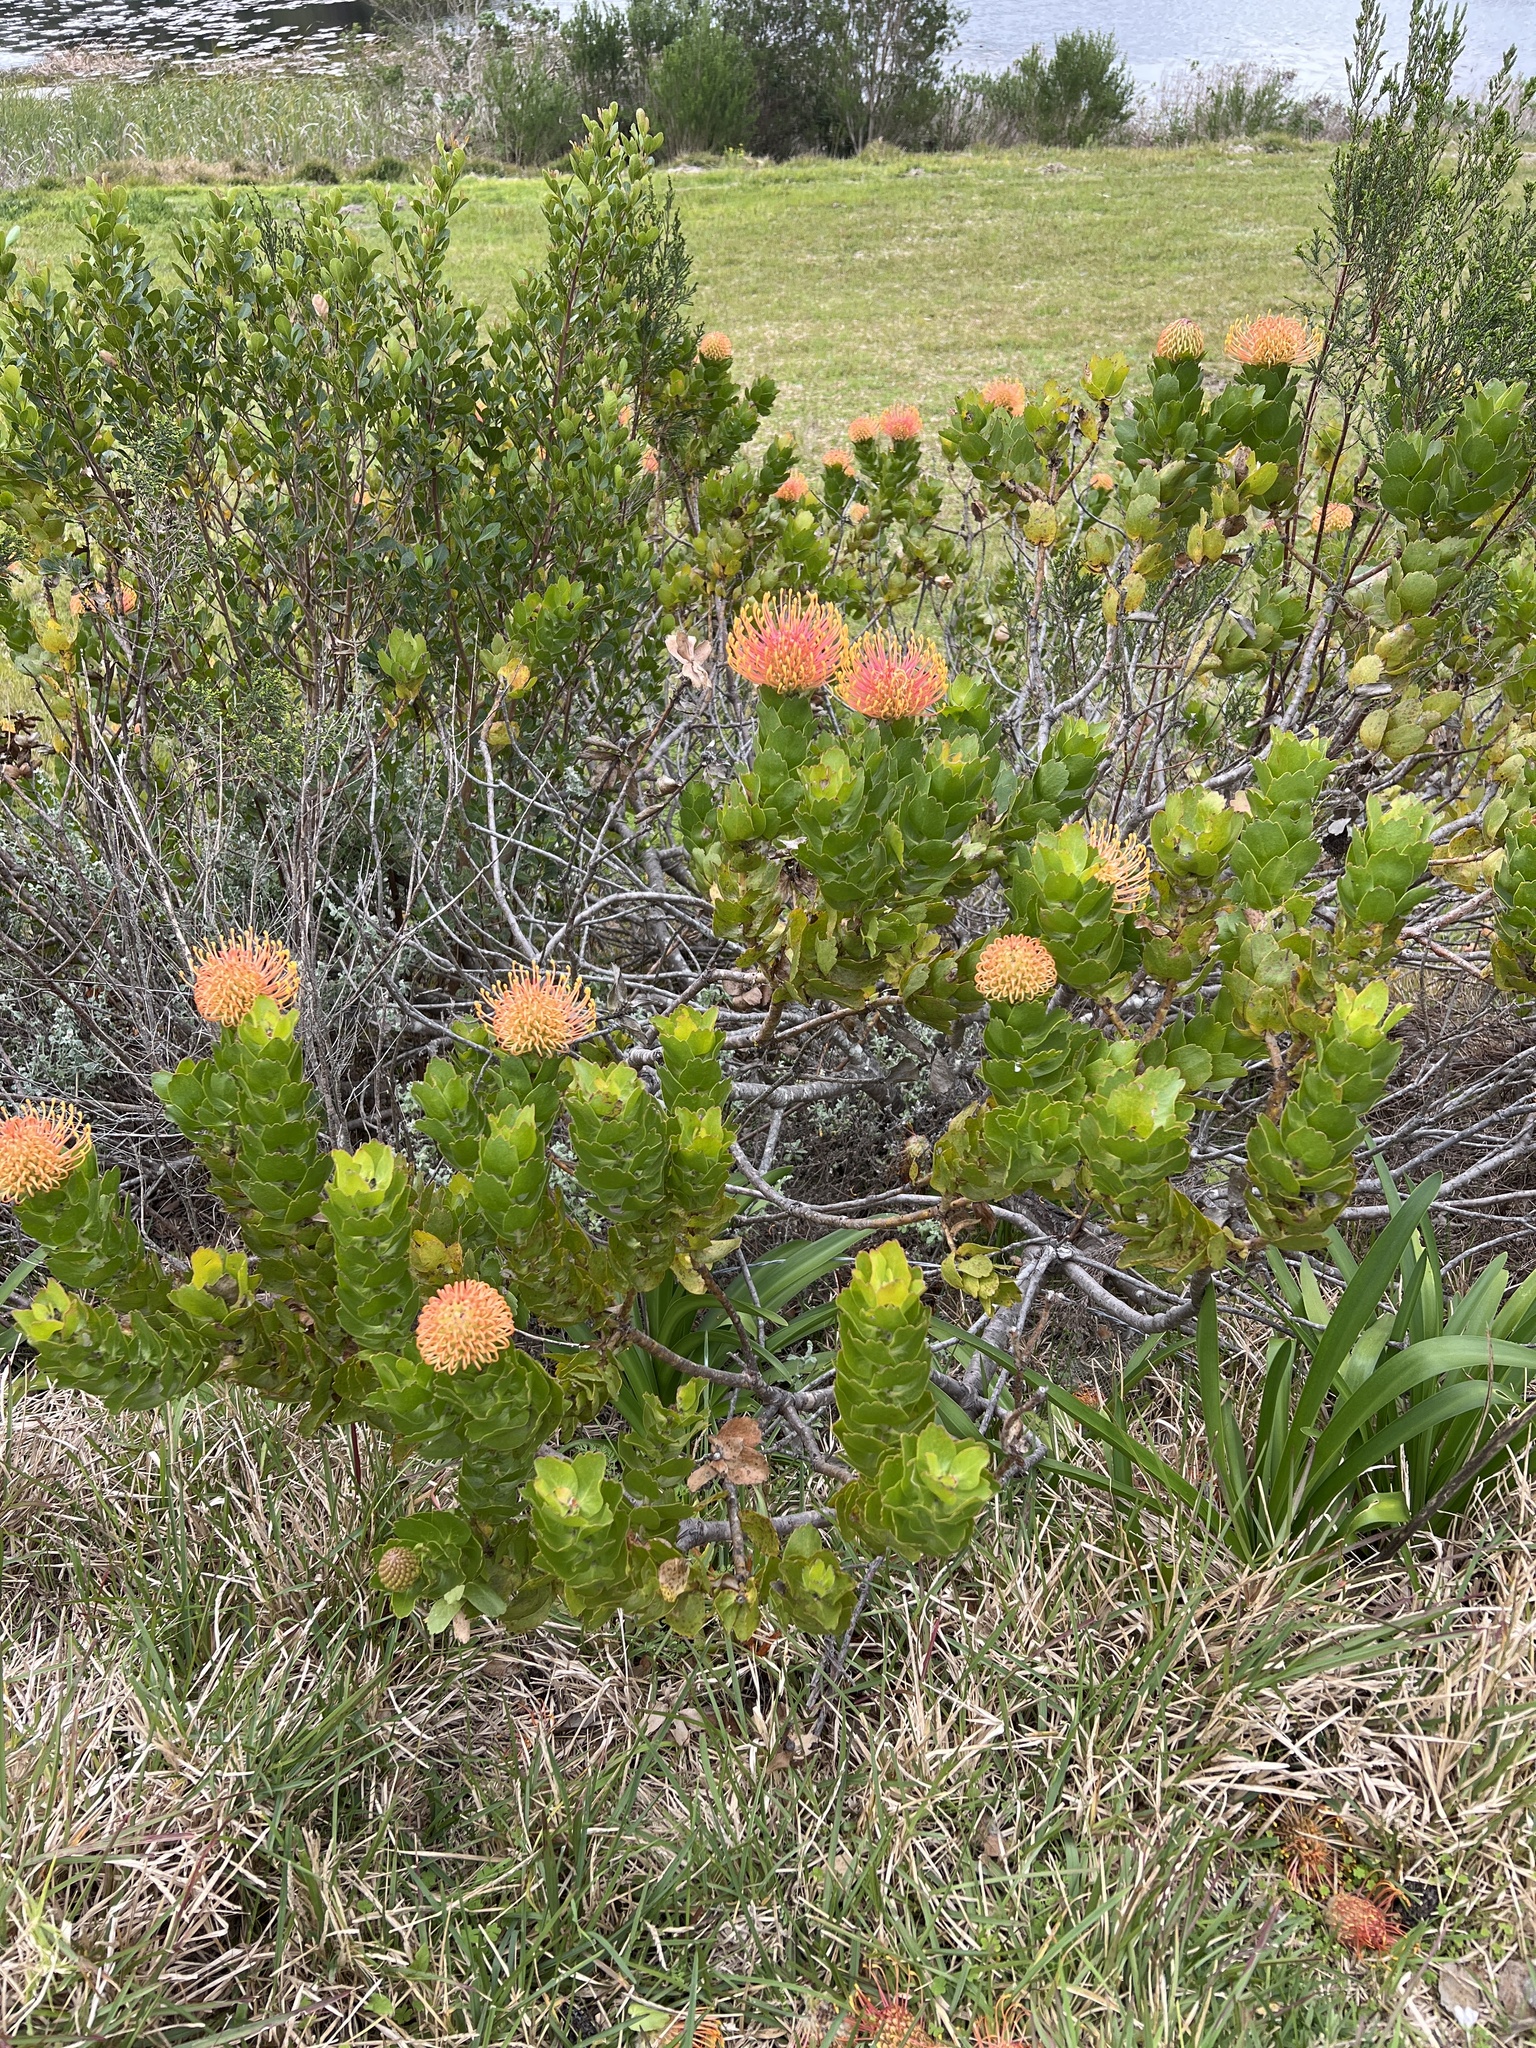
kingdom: Plantae
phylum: Tracheophyta
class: Magnoliopsida
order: Proteales
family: Proteaceae
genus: Leucospermum
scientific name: Leucospermum patersonii
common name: False tree pincushion
